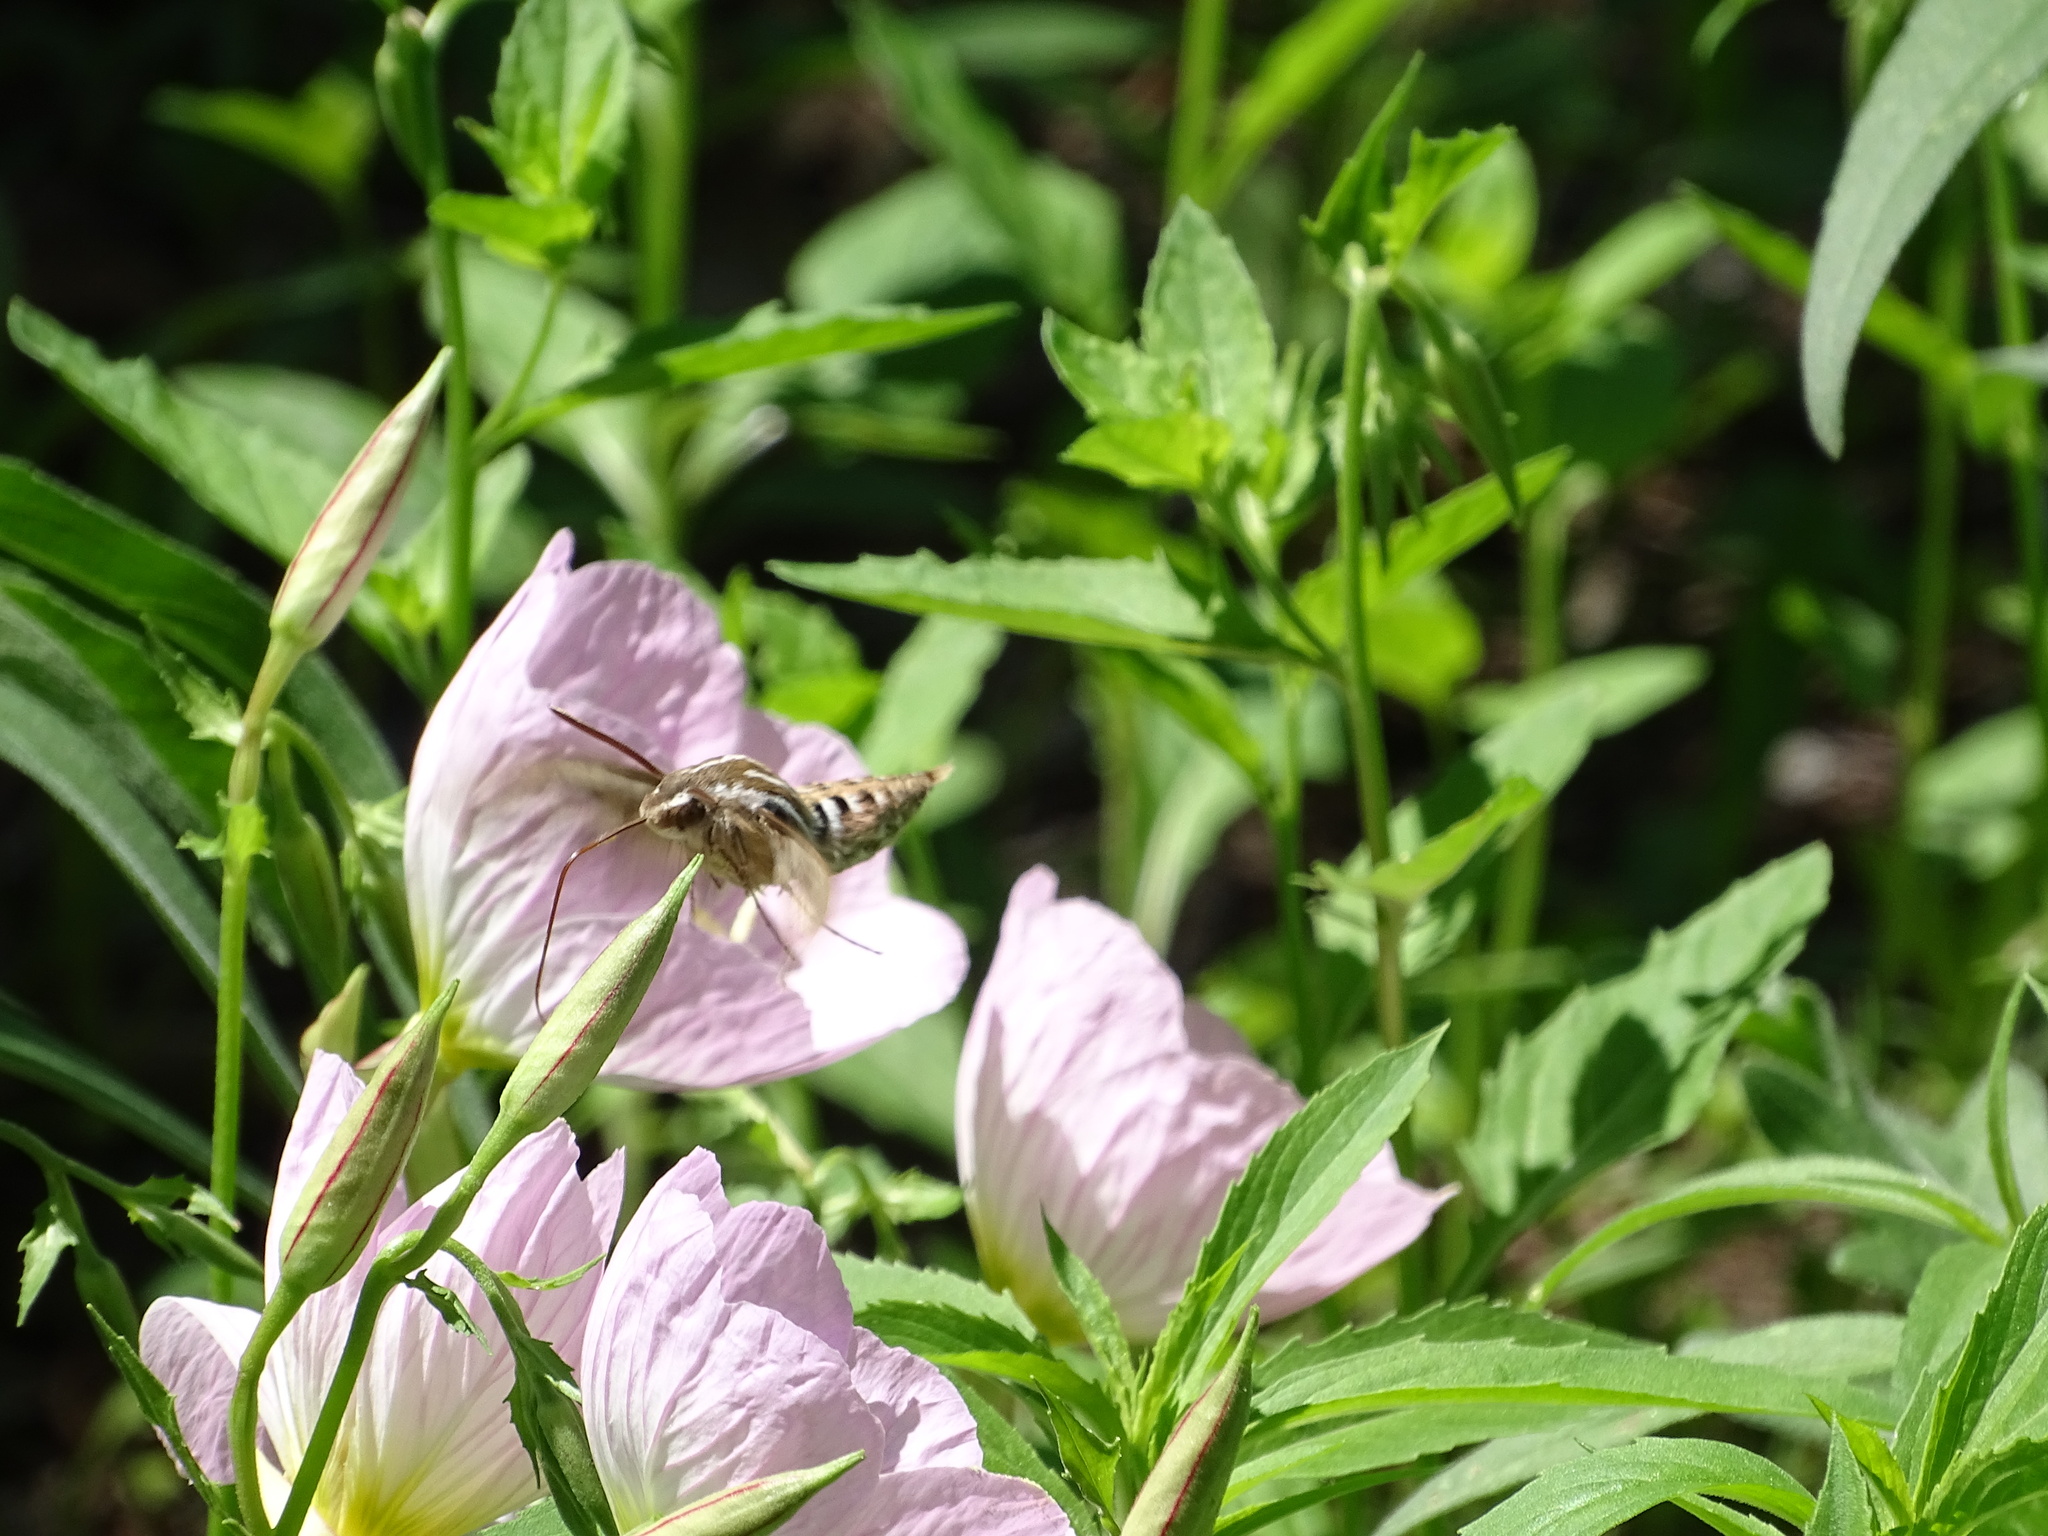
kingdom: Animalia
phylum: Arthropoda
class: Insecta
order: Lepidoptera
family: Sphingidae
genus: Hyles
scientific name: Hyles lineata
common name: White-lined sphinx
